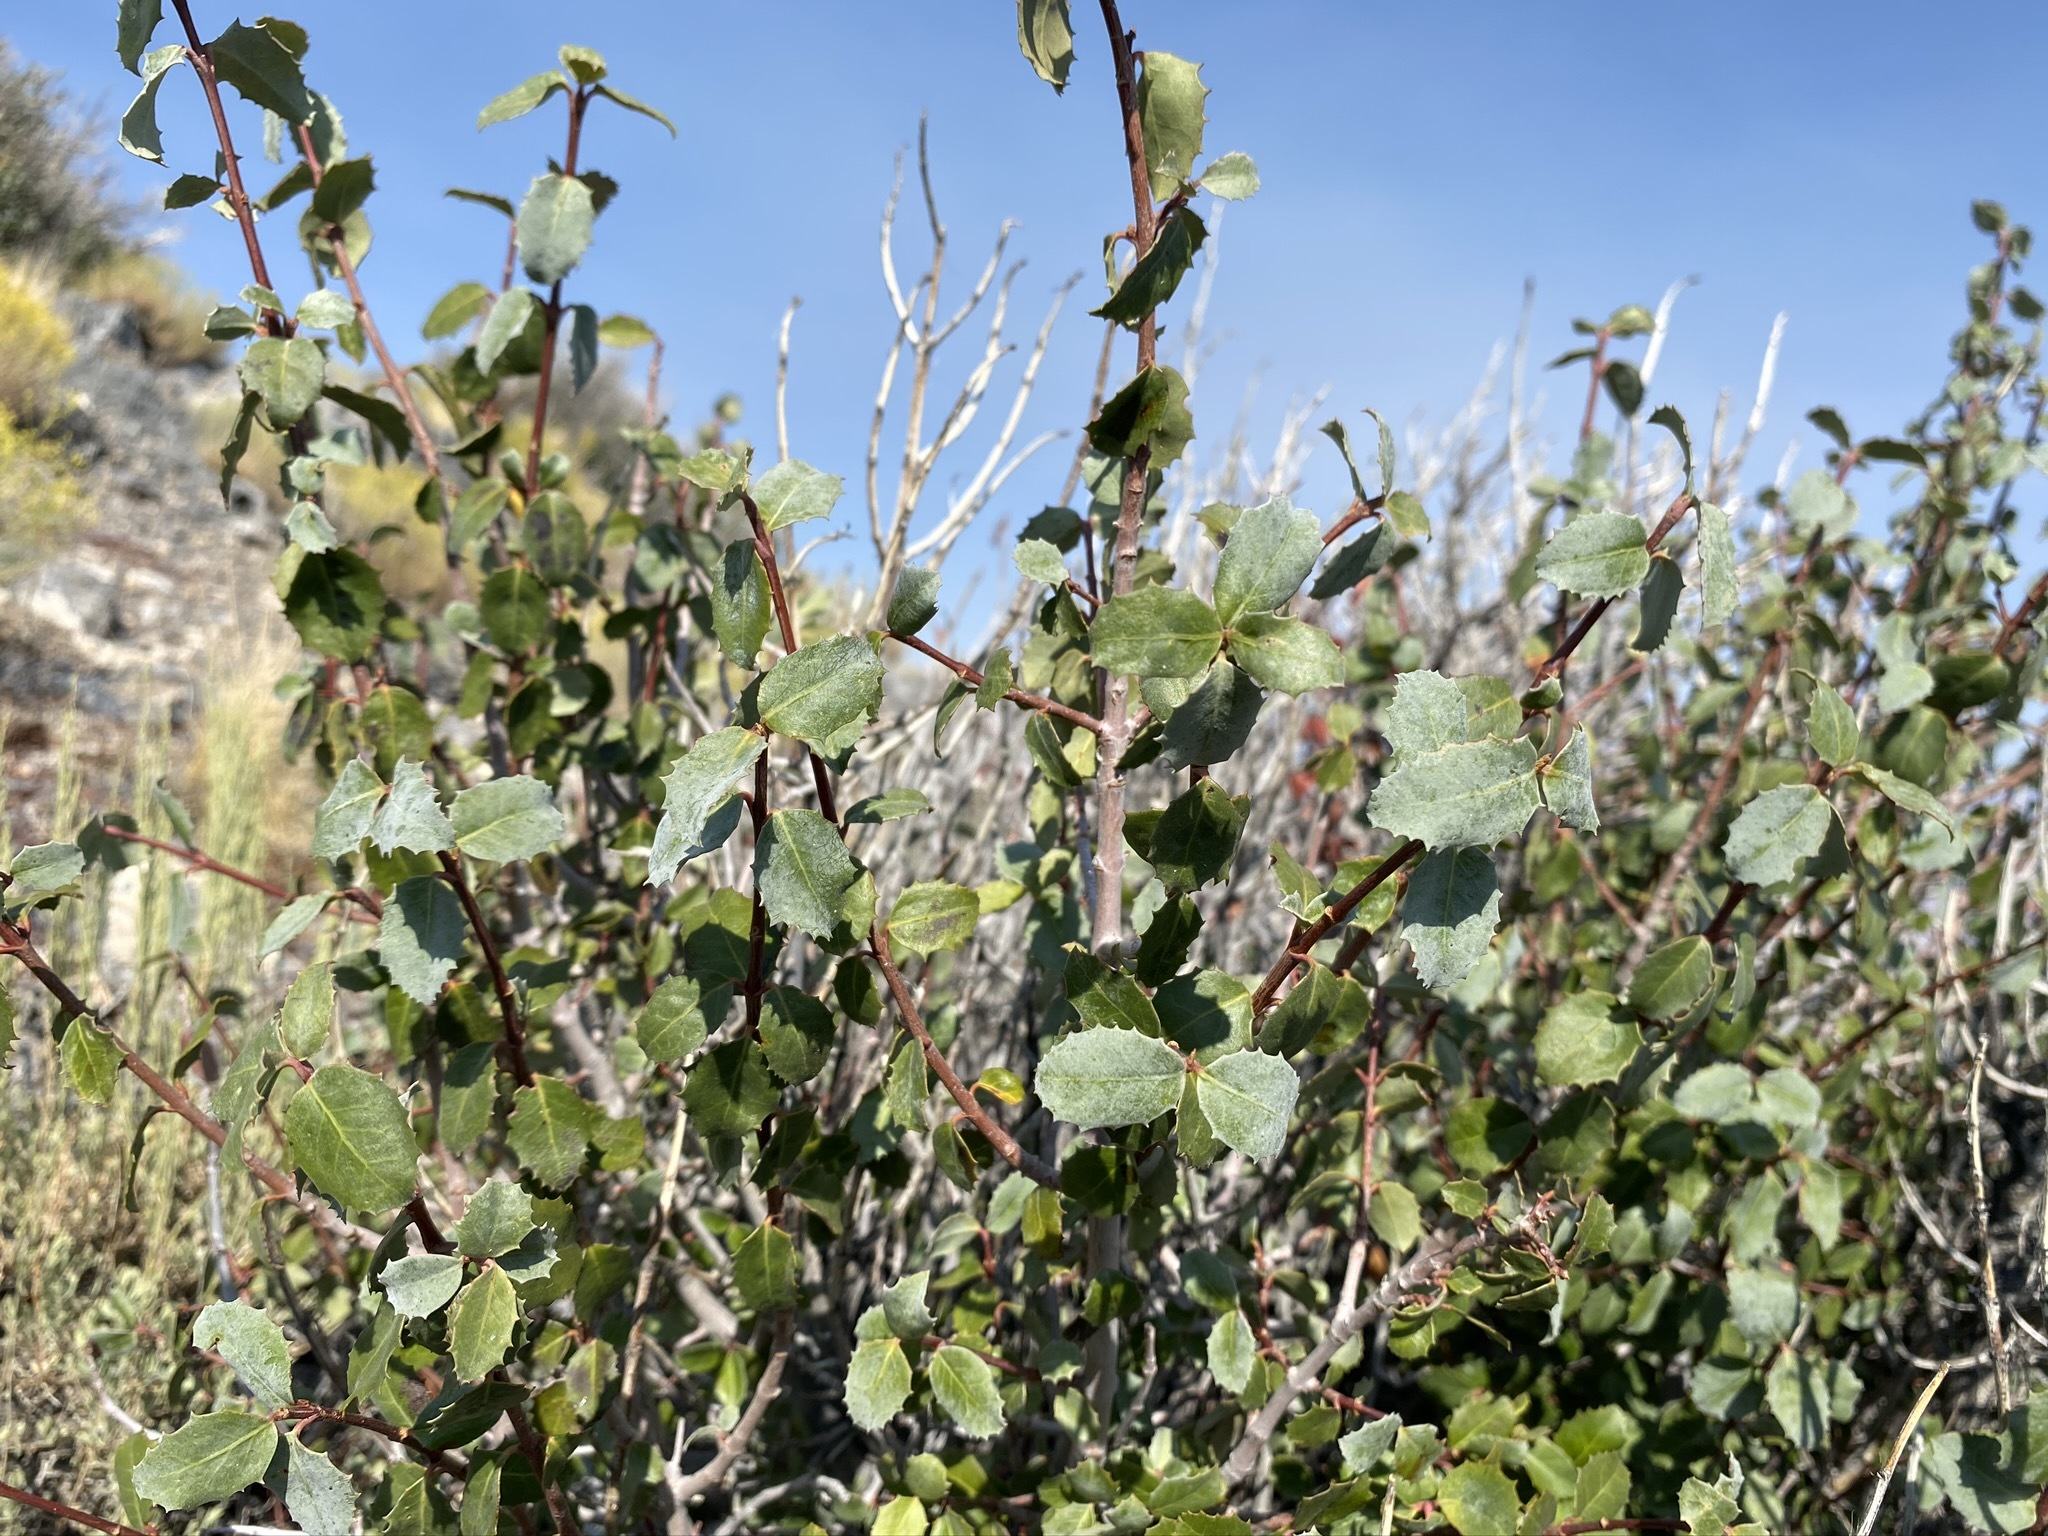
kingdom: Plantae
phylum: Tracheophyta
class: Magnoliopsida
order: Malpighiales
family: Picrodendraceae
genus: Tetracoccus
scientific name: Tetracoccus ilicifolius
